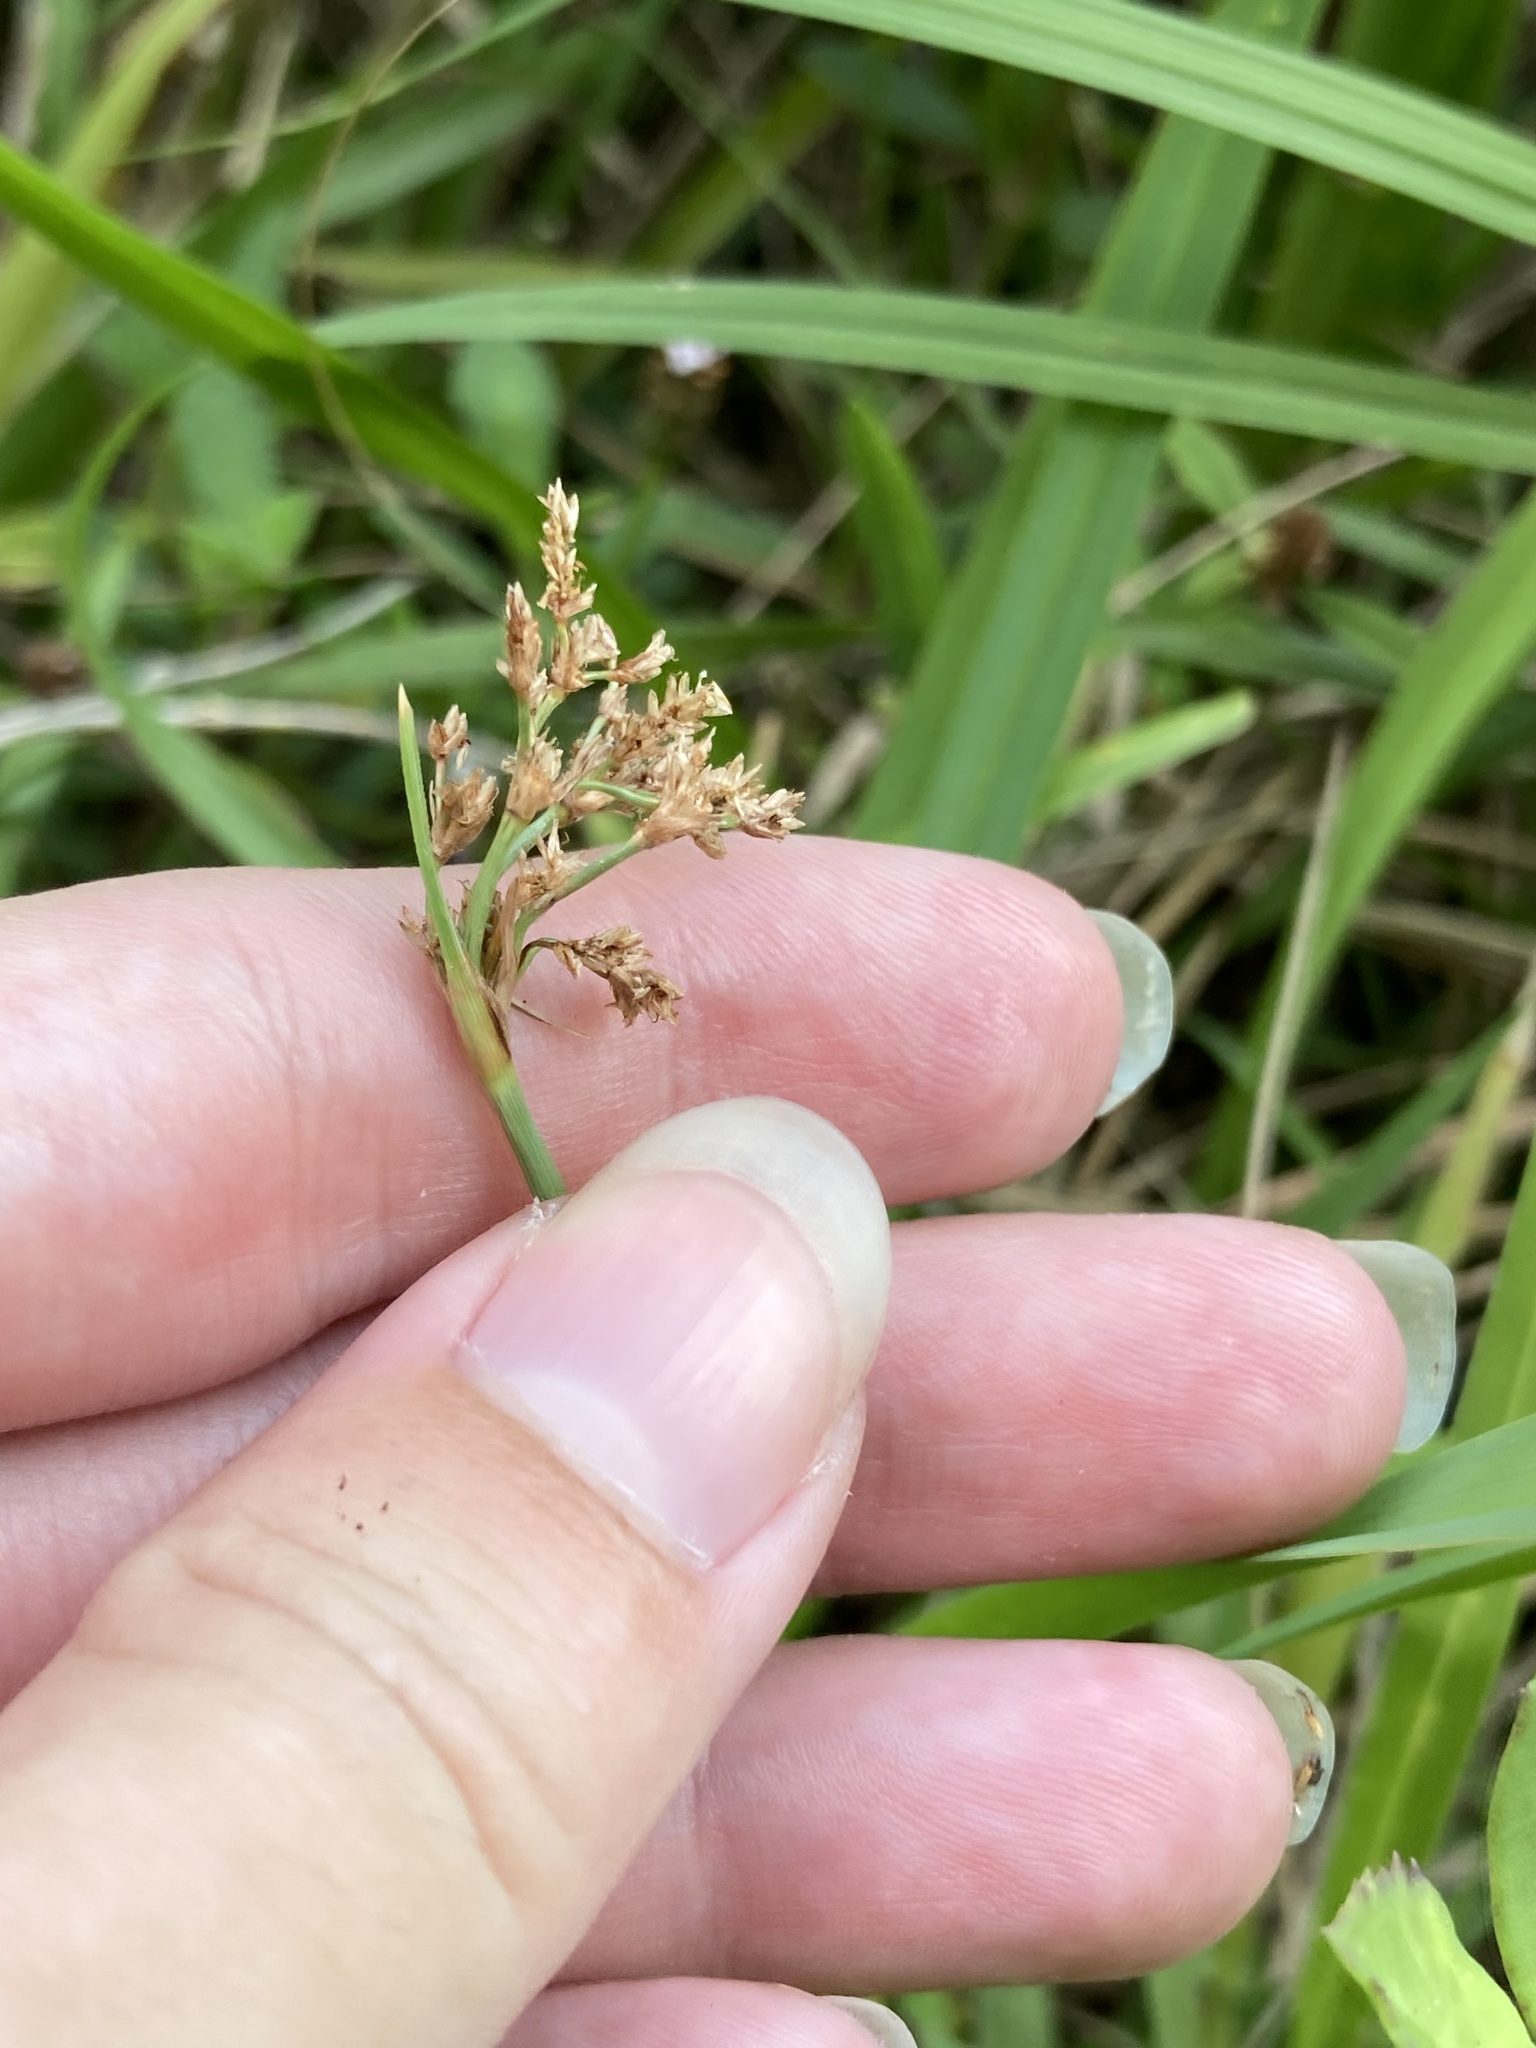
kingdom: Plantae
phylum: Tracheophyta
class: Liliopsida
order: Poales
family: Cyperaceae
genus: Fimbristylis
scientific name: Fimbristylis cymosa
